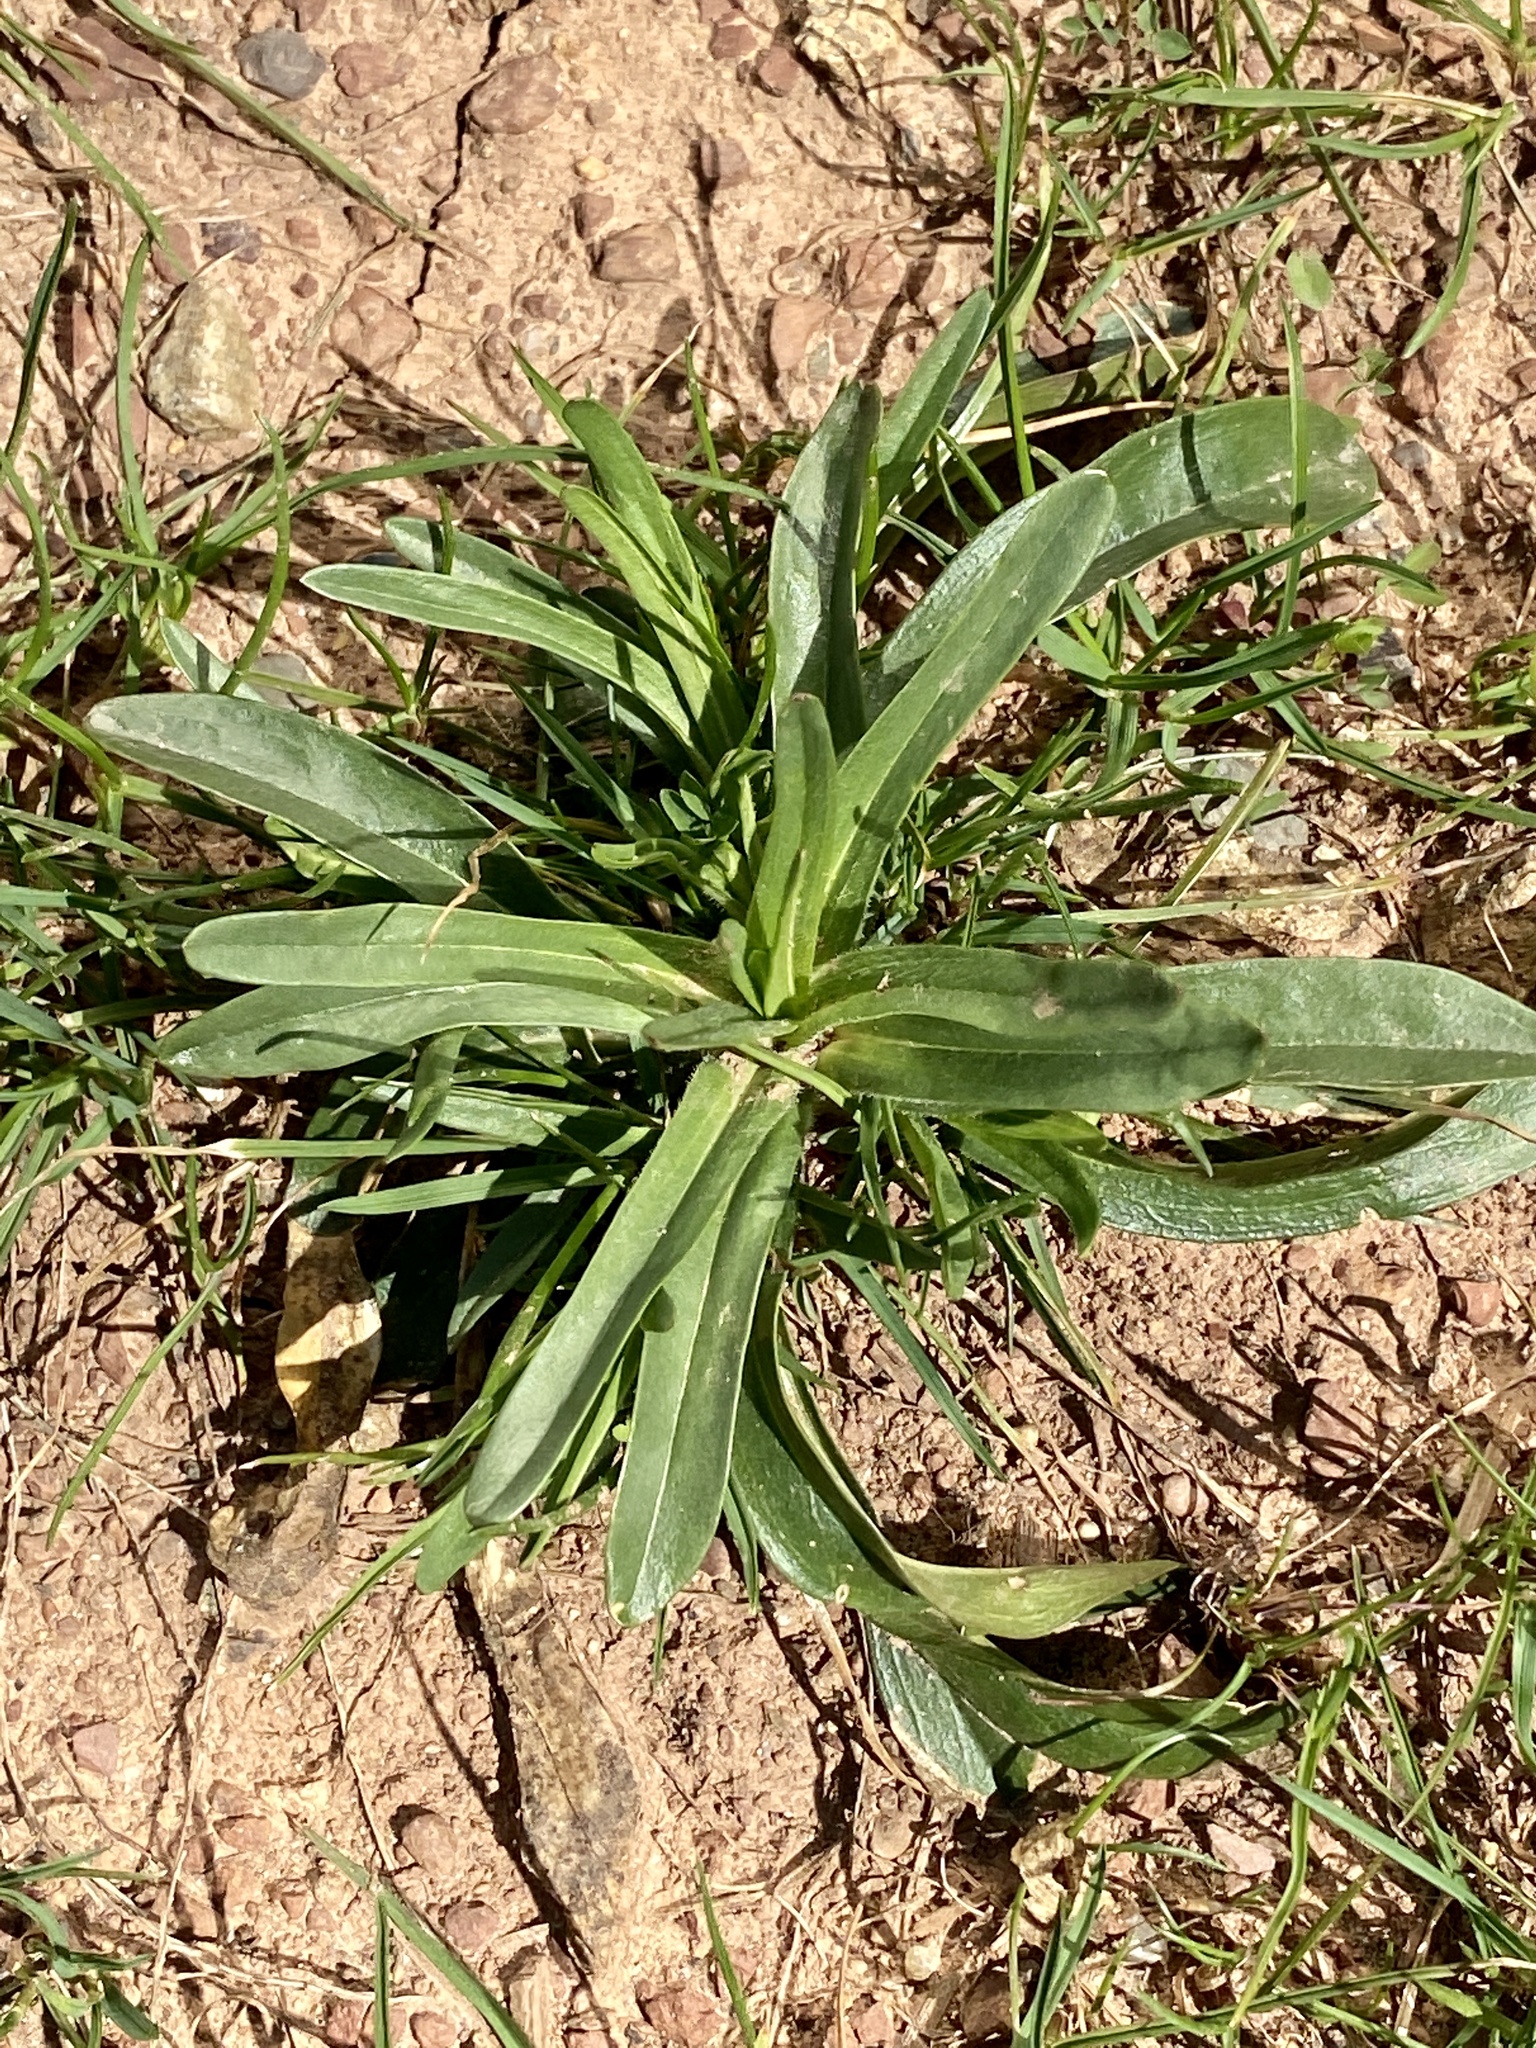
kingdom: Plantae
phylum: Tracheophyta
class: Magnoliopsida
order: Caryophyllales
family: Caryophyllaceae
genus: Dianthus
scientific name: Dianthus armeria
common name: Deptford pink
